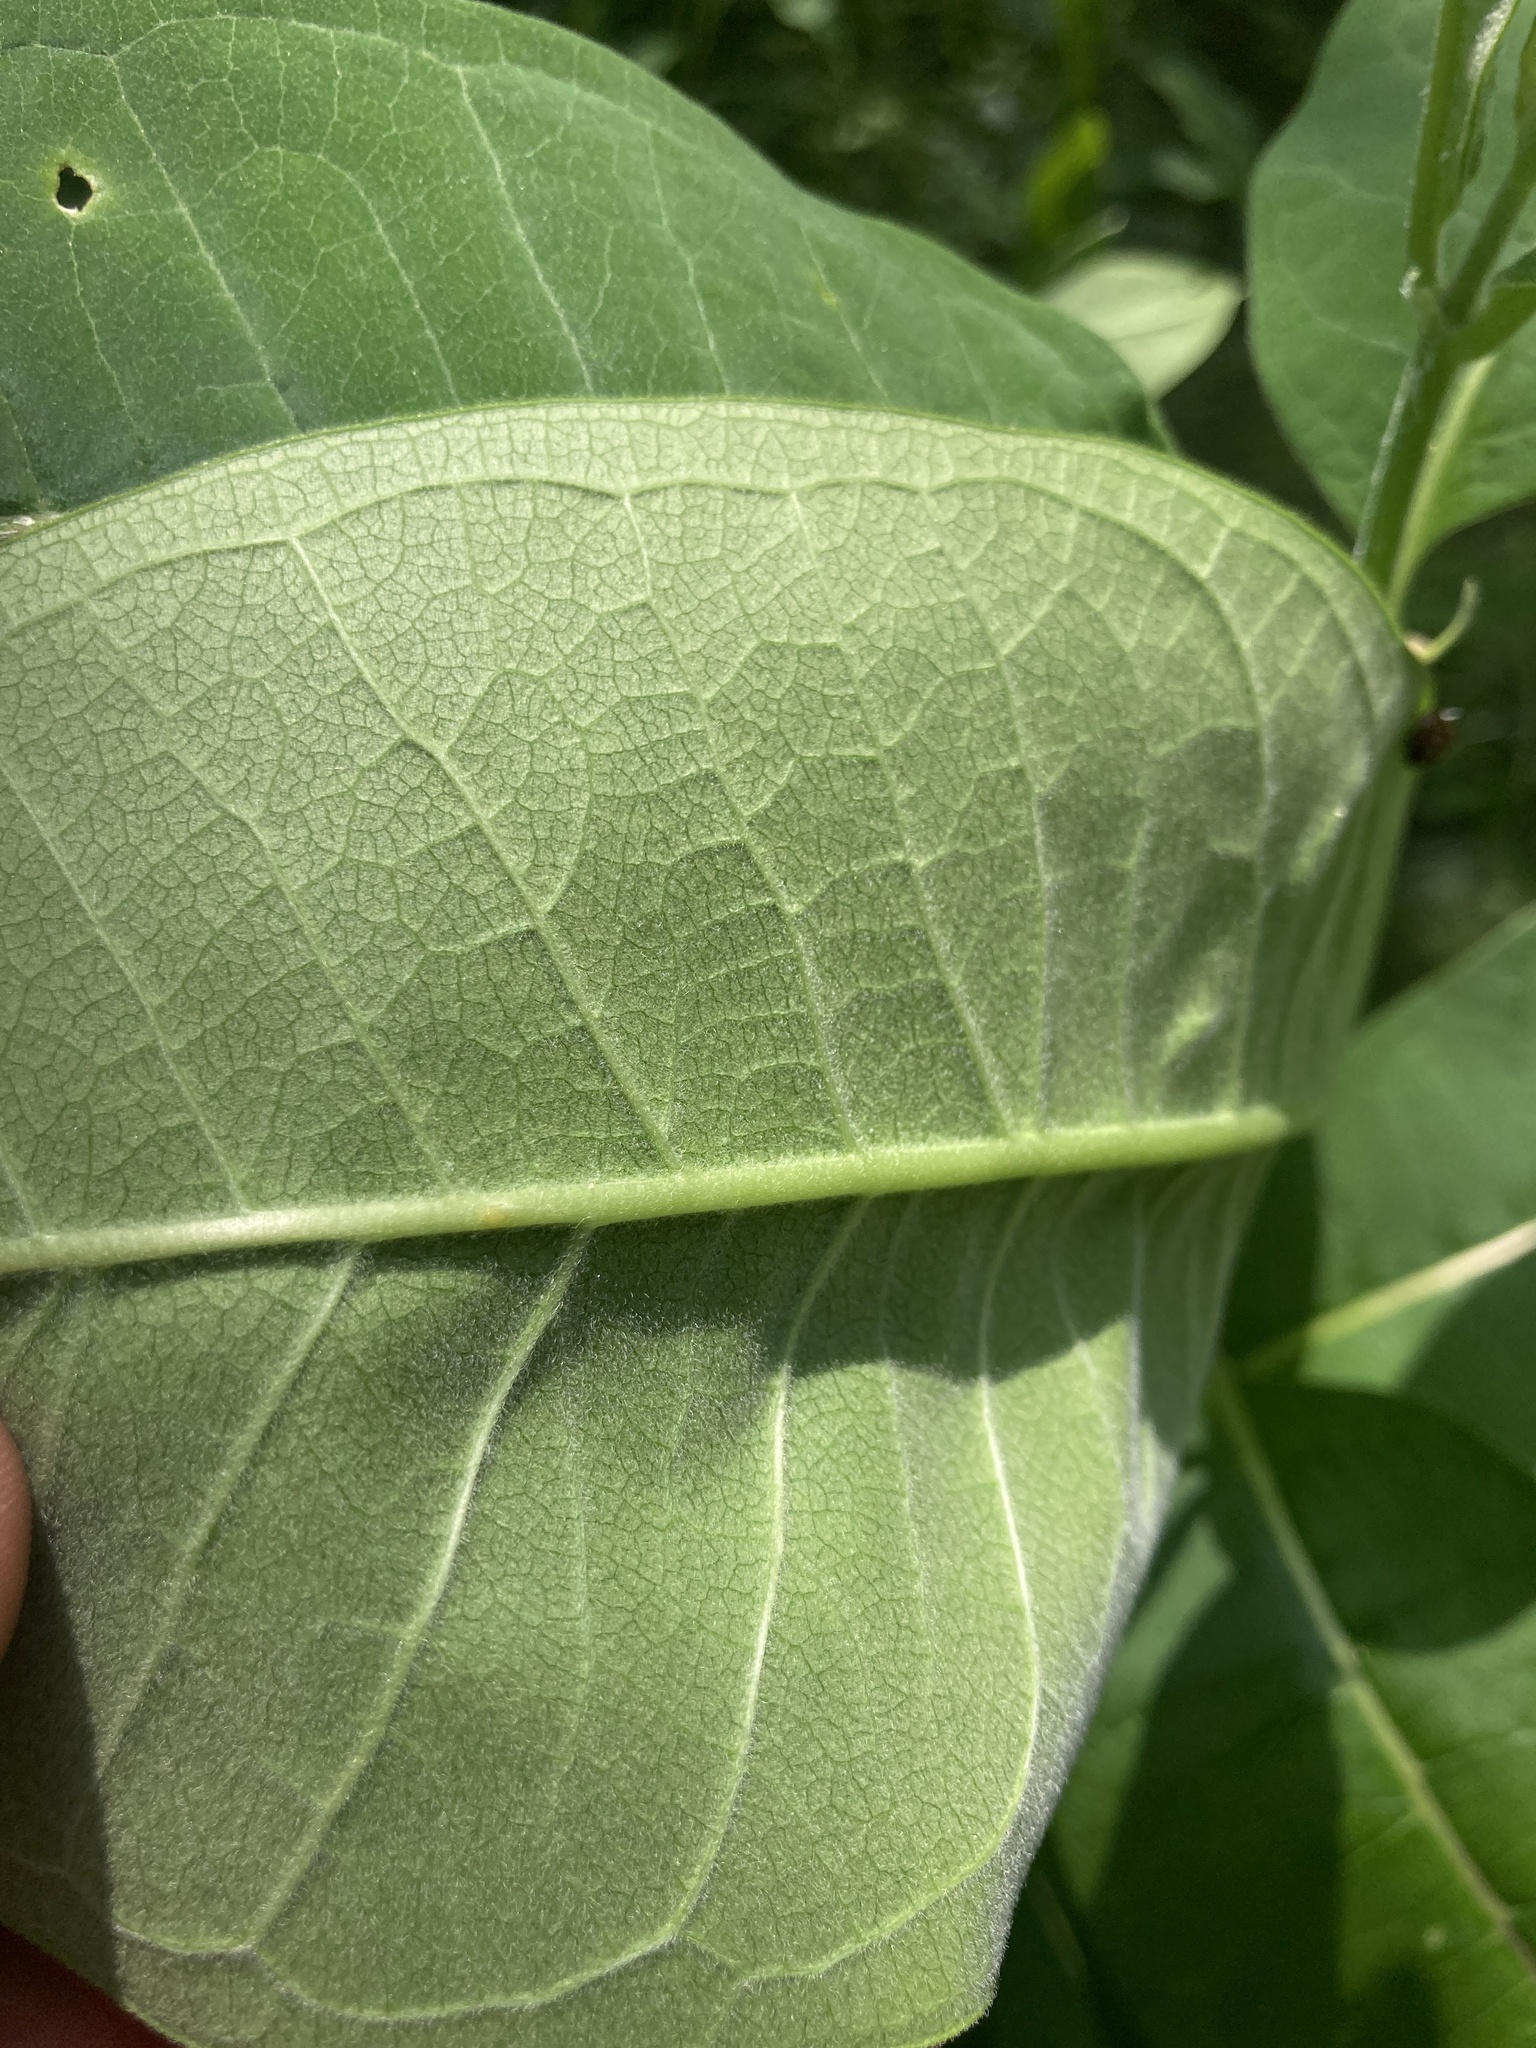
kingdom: Plantae
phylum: Tracheophyta
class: Magnoliopsida
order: Gentianales
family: Apocynaceae
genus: Asclepias
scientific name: Asclepias syriaca
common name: Common milkweed
